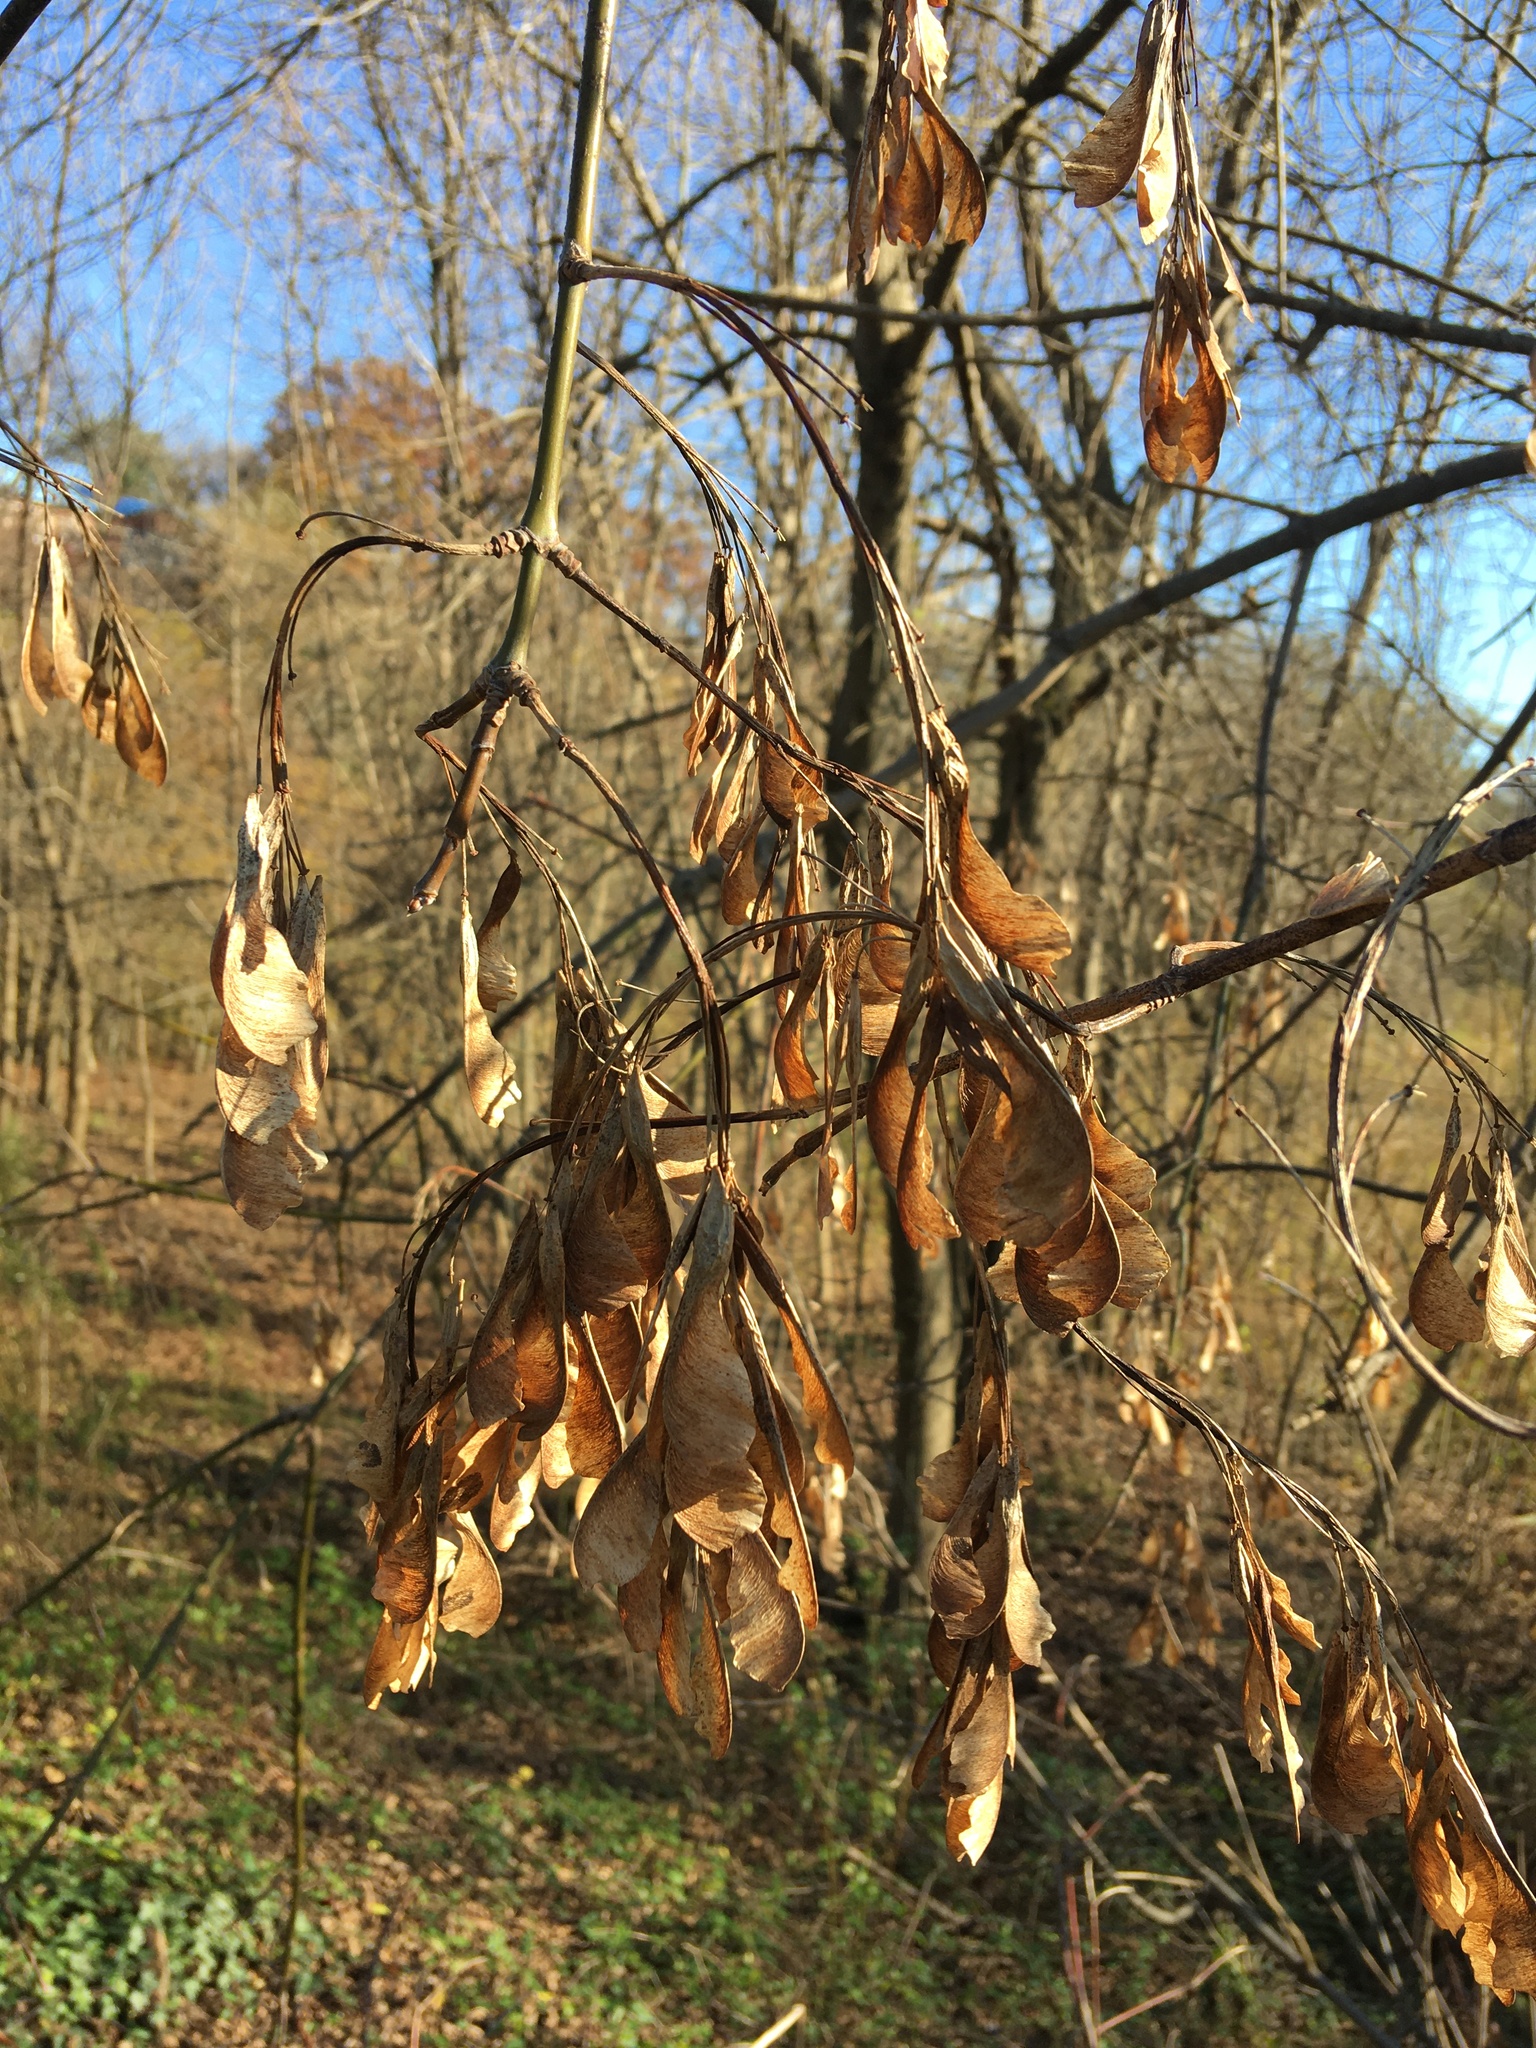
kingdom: Plantae
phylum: Tracheophyta
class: Magnoliopsida
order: Sapindales
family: Sapindaceae
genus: Acer
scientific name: Acer negundo
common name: Ashleaf maple
